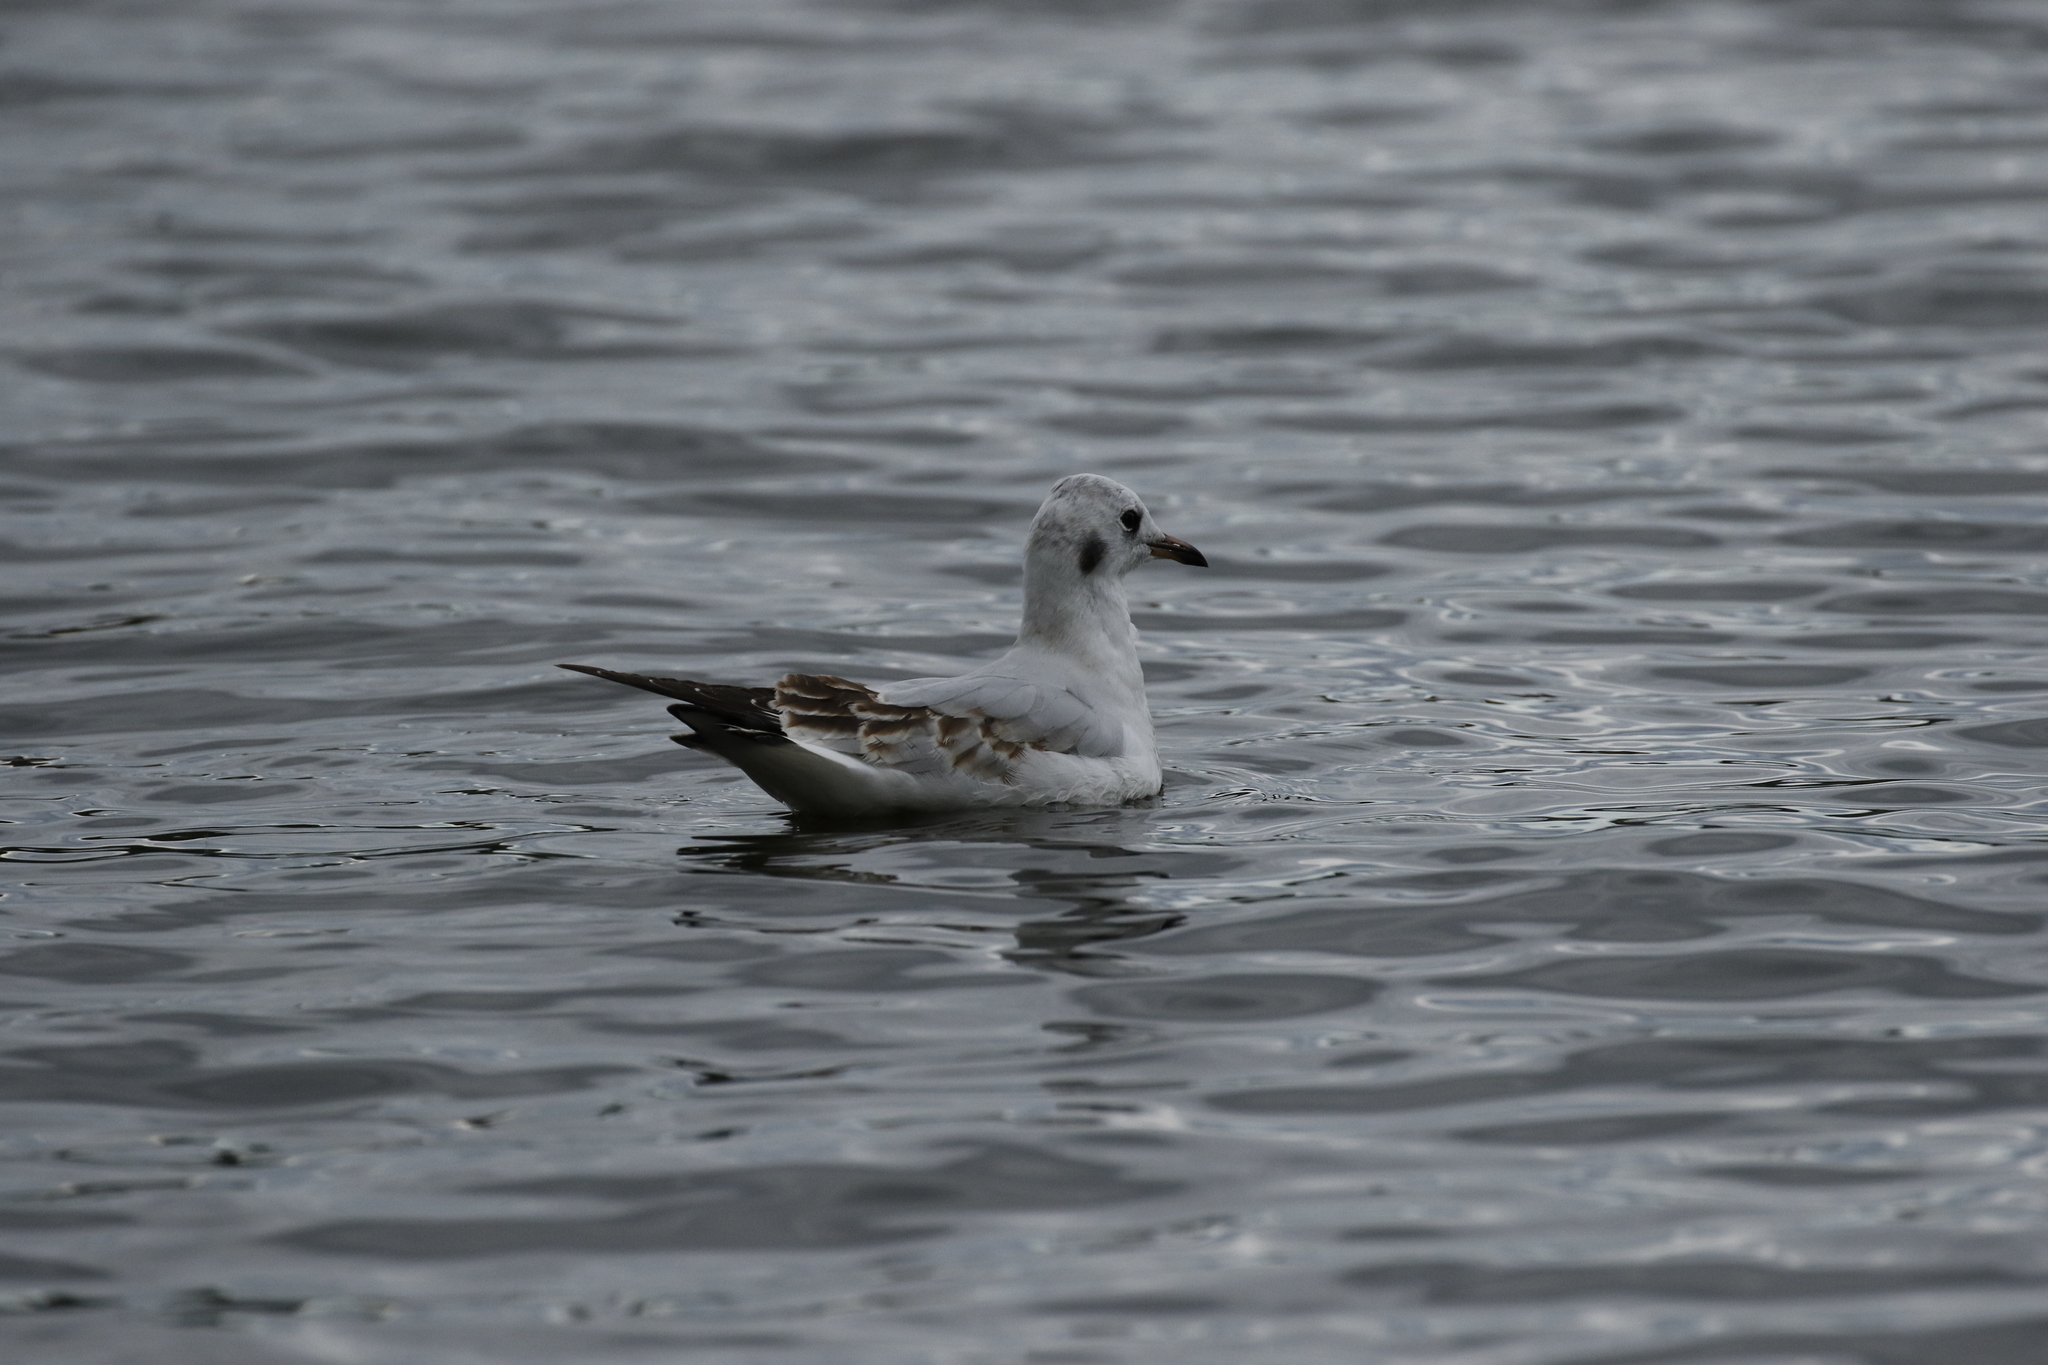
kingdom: Animalia
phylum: Chordata
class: Aves
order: Charadriiformes
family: Laridae
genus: Chroicocephalus
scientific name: Chroicocephalus ridibundus
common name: Black-headed gull
